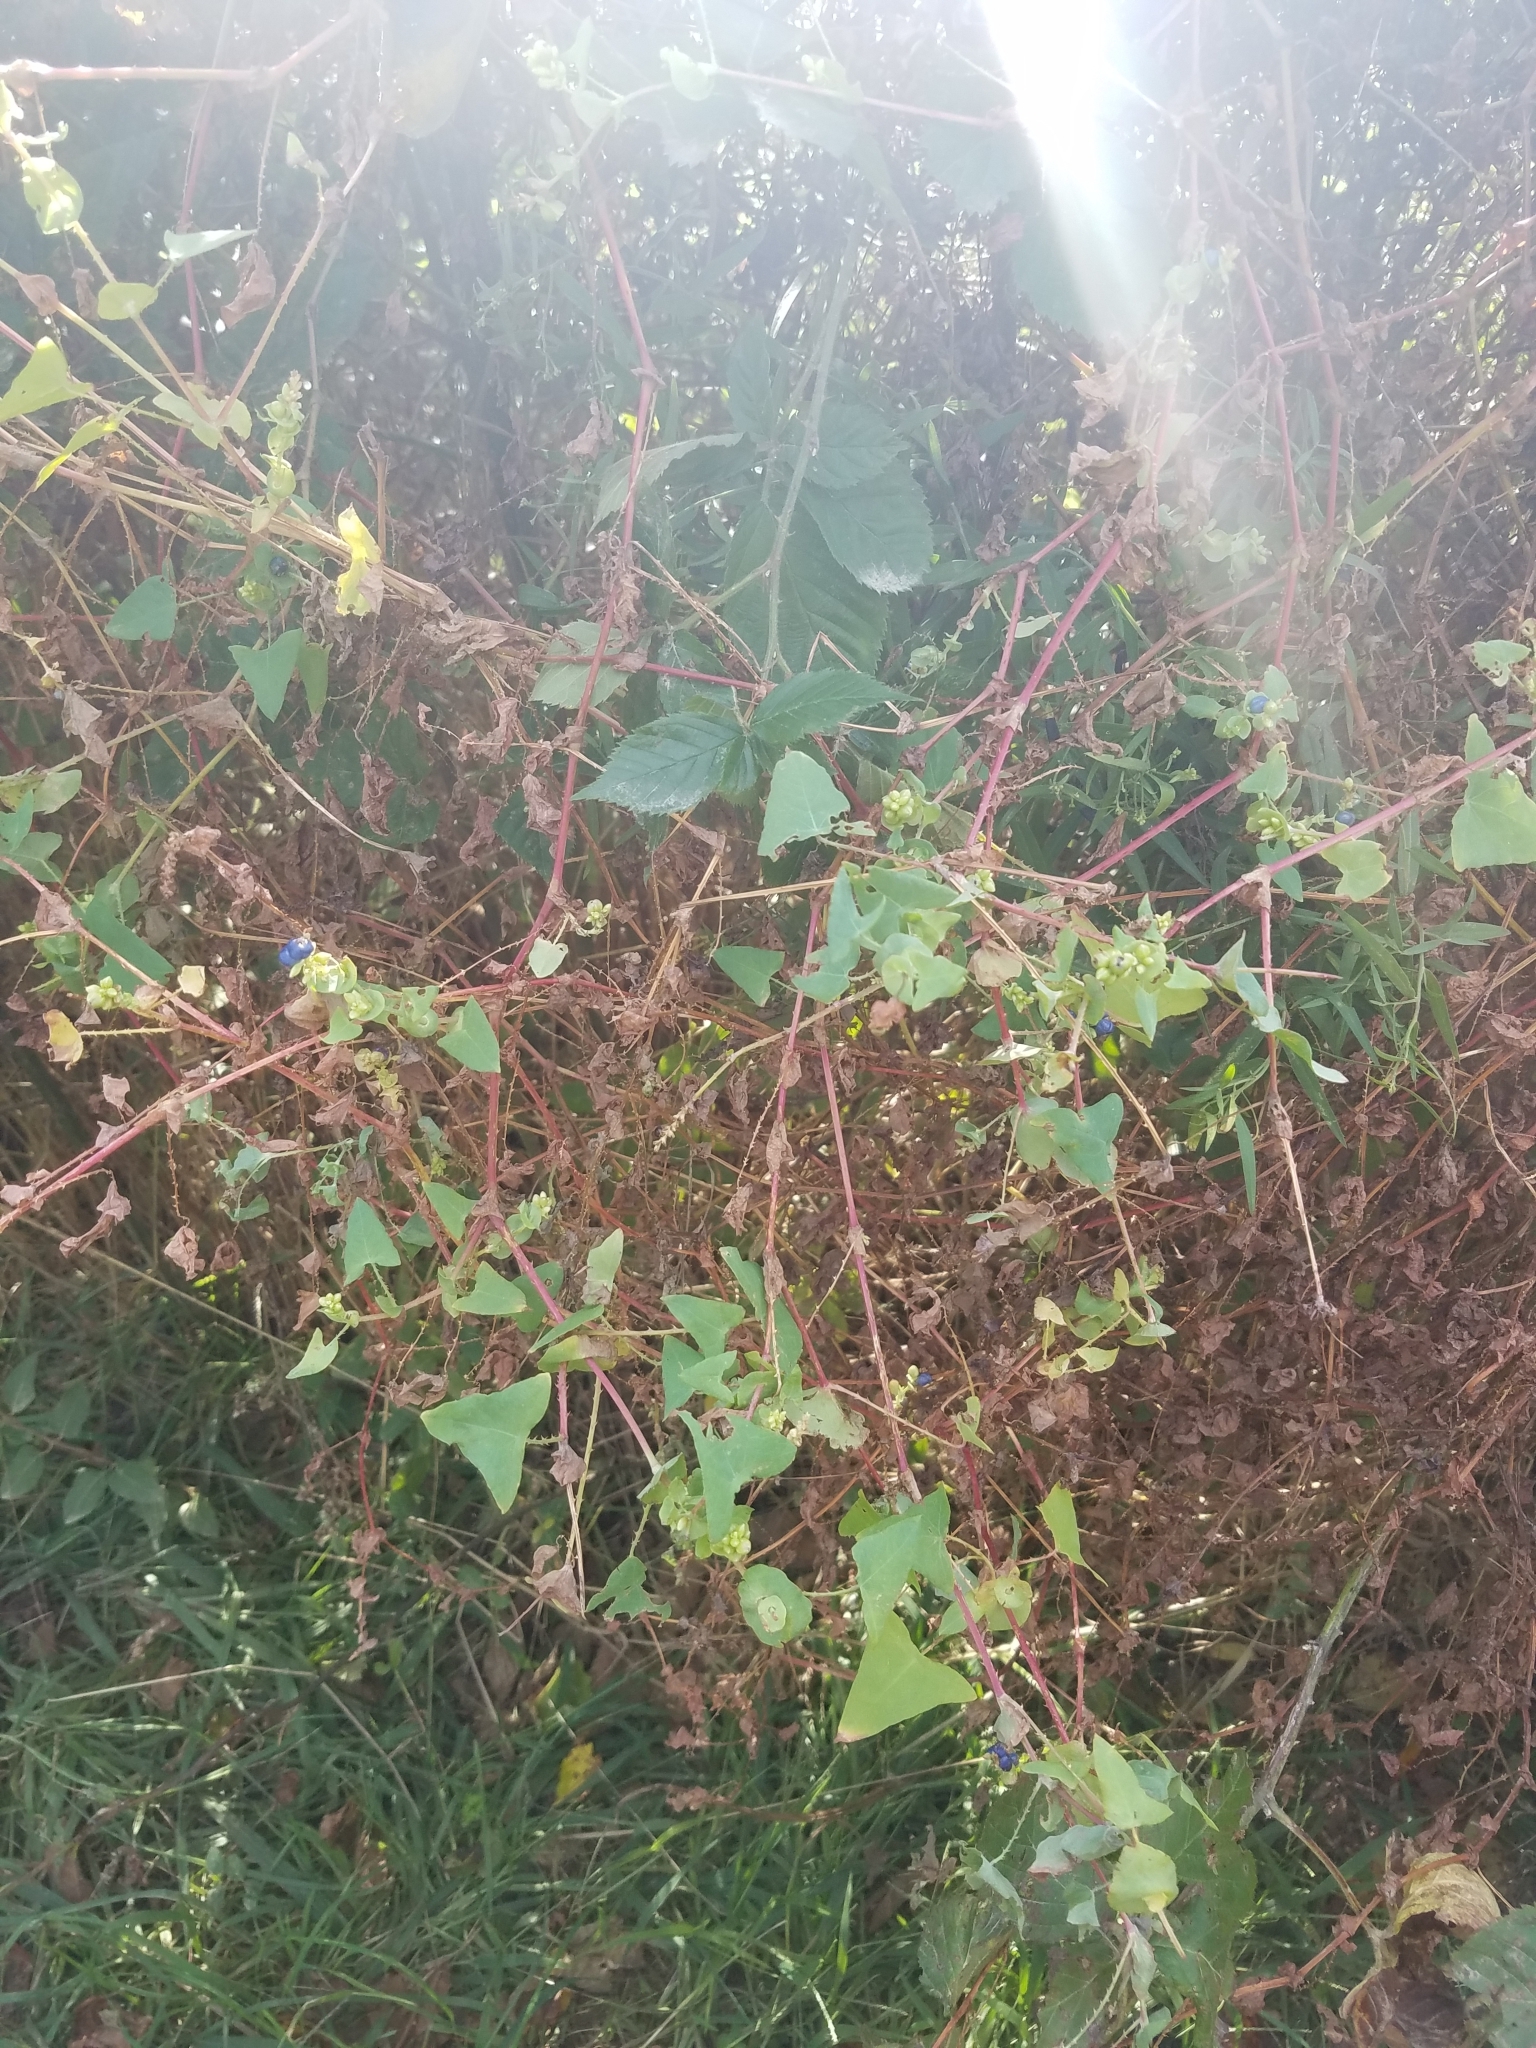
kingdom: Plantae
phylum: Tracheophyta
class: Magnoliopsida
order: Caryophyllales
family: Polygonaceae
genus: Persicaria
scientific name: Persicaria perfoliata
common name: Asiatic tearthumb
